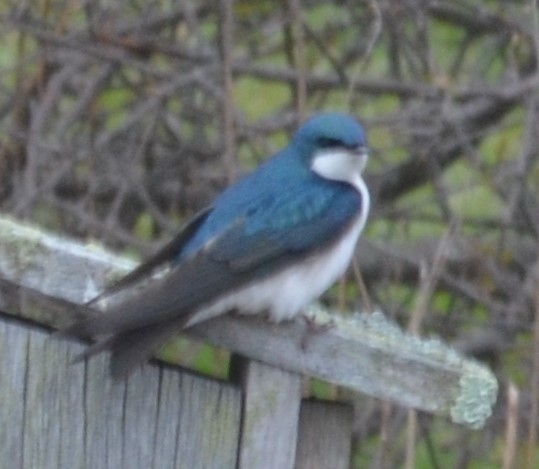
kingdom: Animalia
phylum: Chordata
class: Aves
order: Passeriformes
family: Hirundinidae
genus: Tachycineta
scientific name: Tachycineta bicolor
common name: Tree swallow
